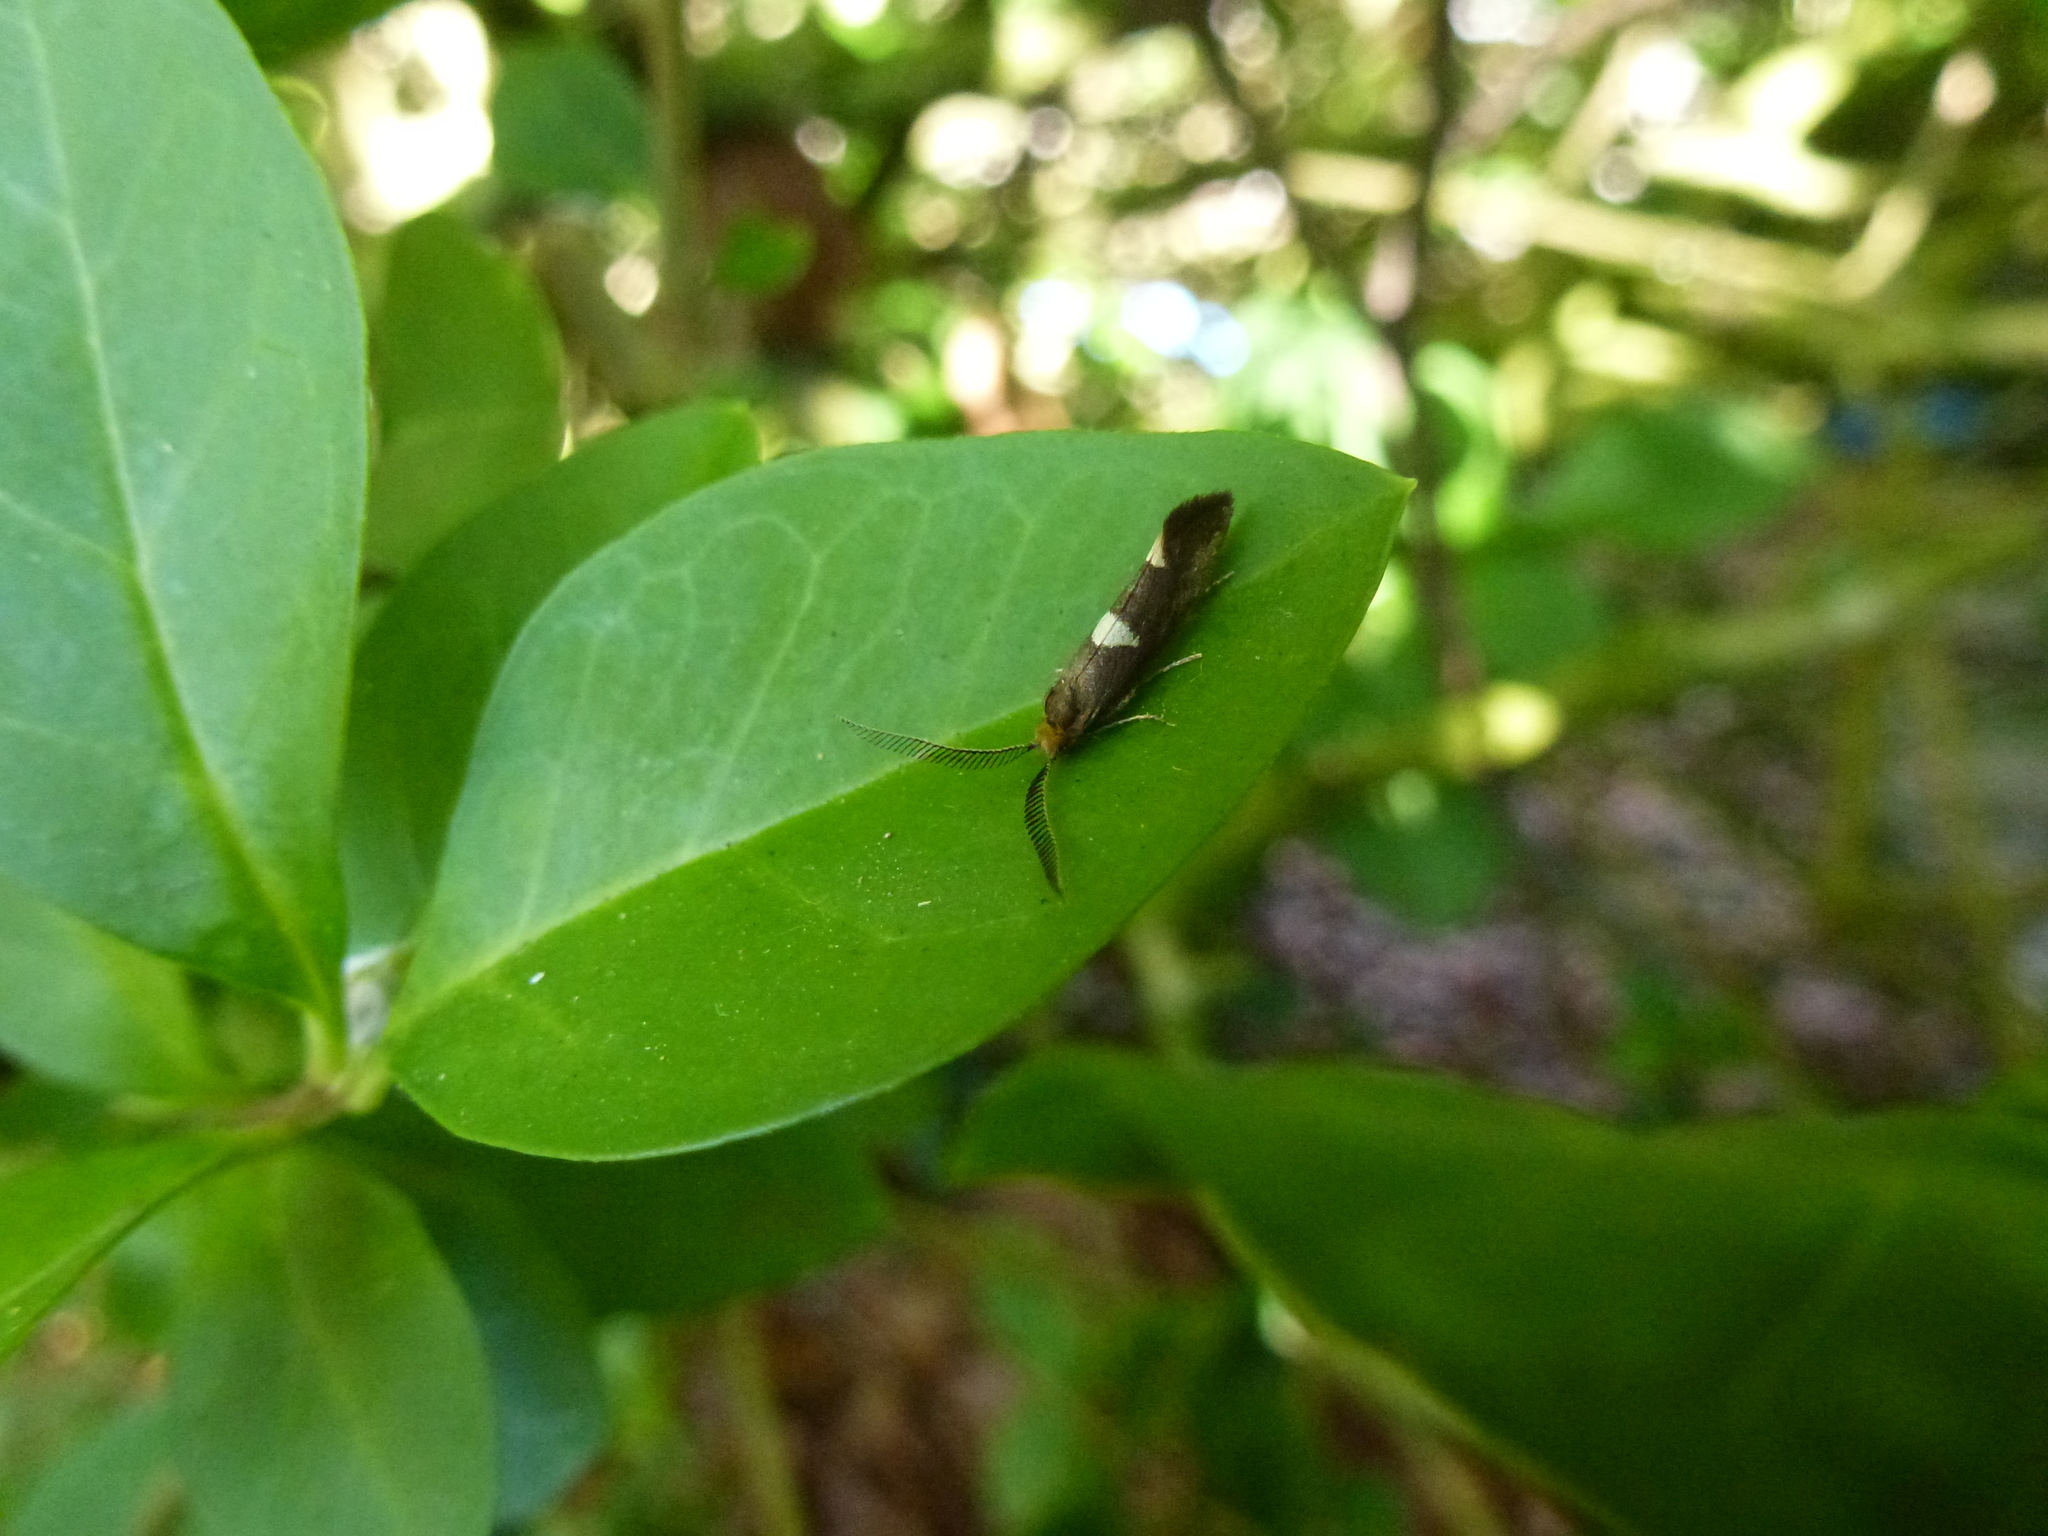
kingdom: Animalia
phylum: Arthropoda
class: Insecta
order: Lepidoptera
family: Incurvariidae
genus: Incurvaria
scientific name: Incurvaria masculella
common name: Feathered leaf-cutter
